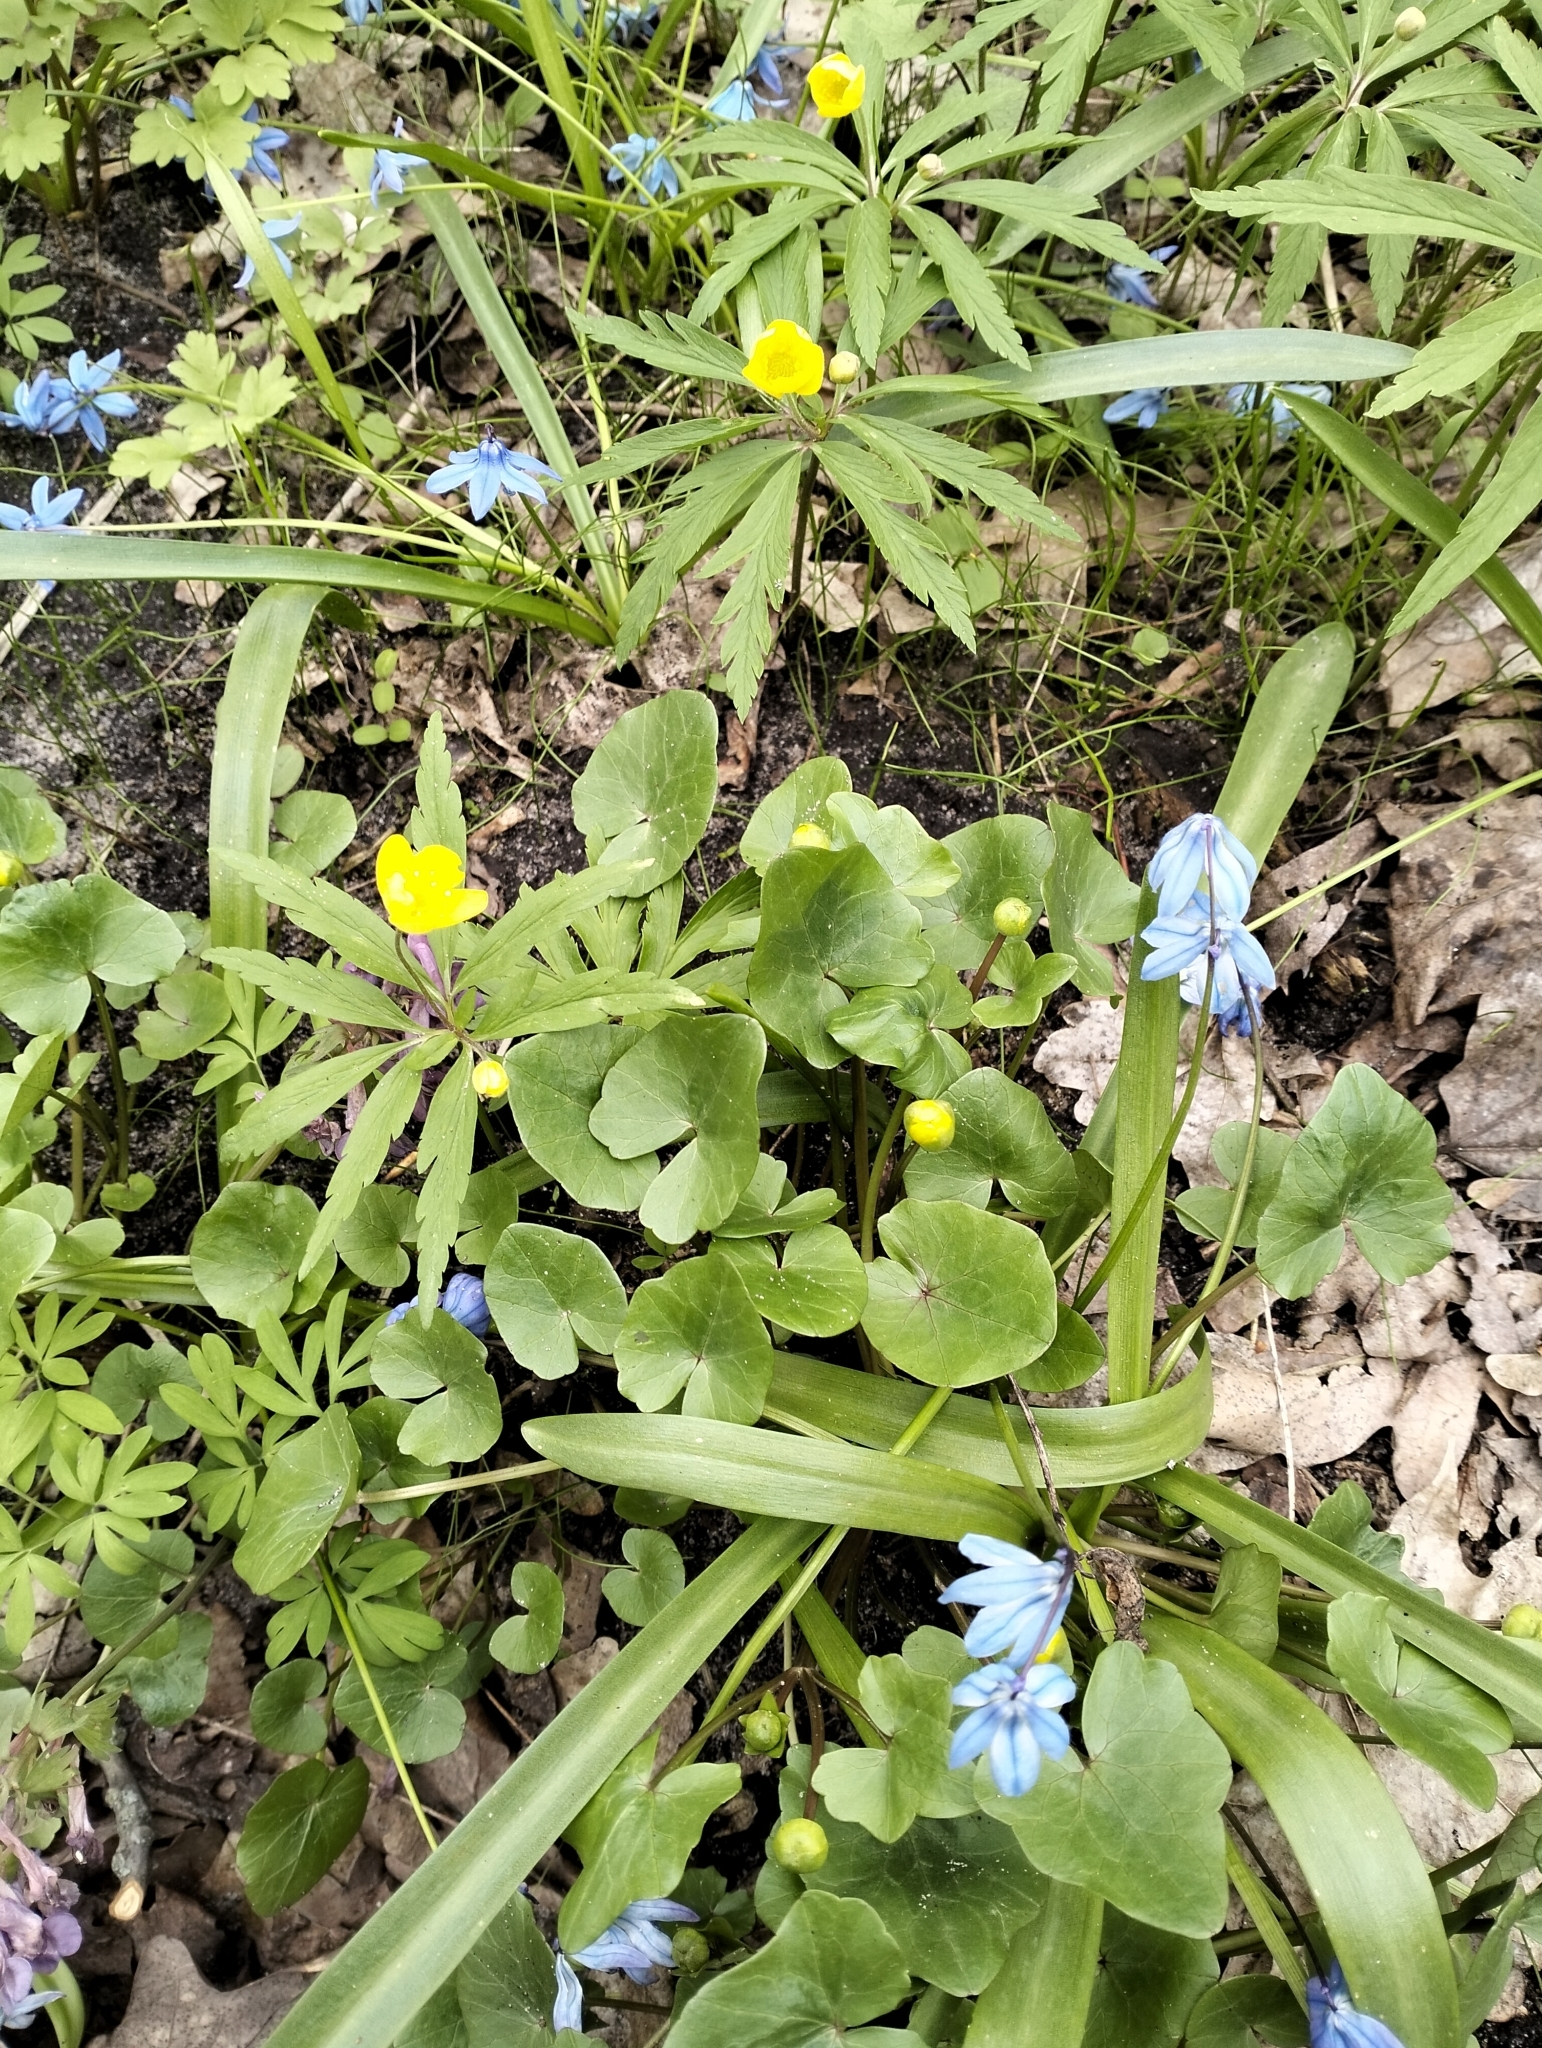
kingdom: Plantae
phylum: Tracheophyta
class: Magnoliopsida
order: Ranunculales
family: Ranunculaceae
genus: Ficaria
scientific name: Ficaria verna
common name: Lesser celandine
